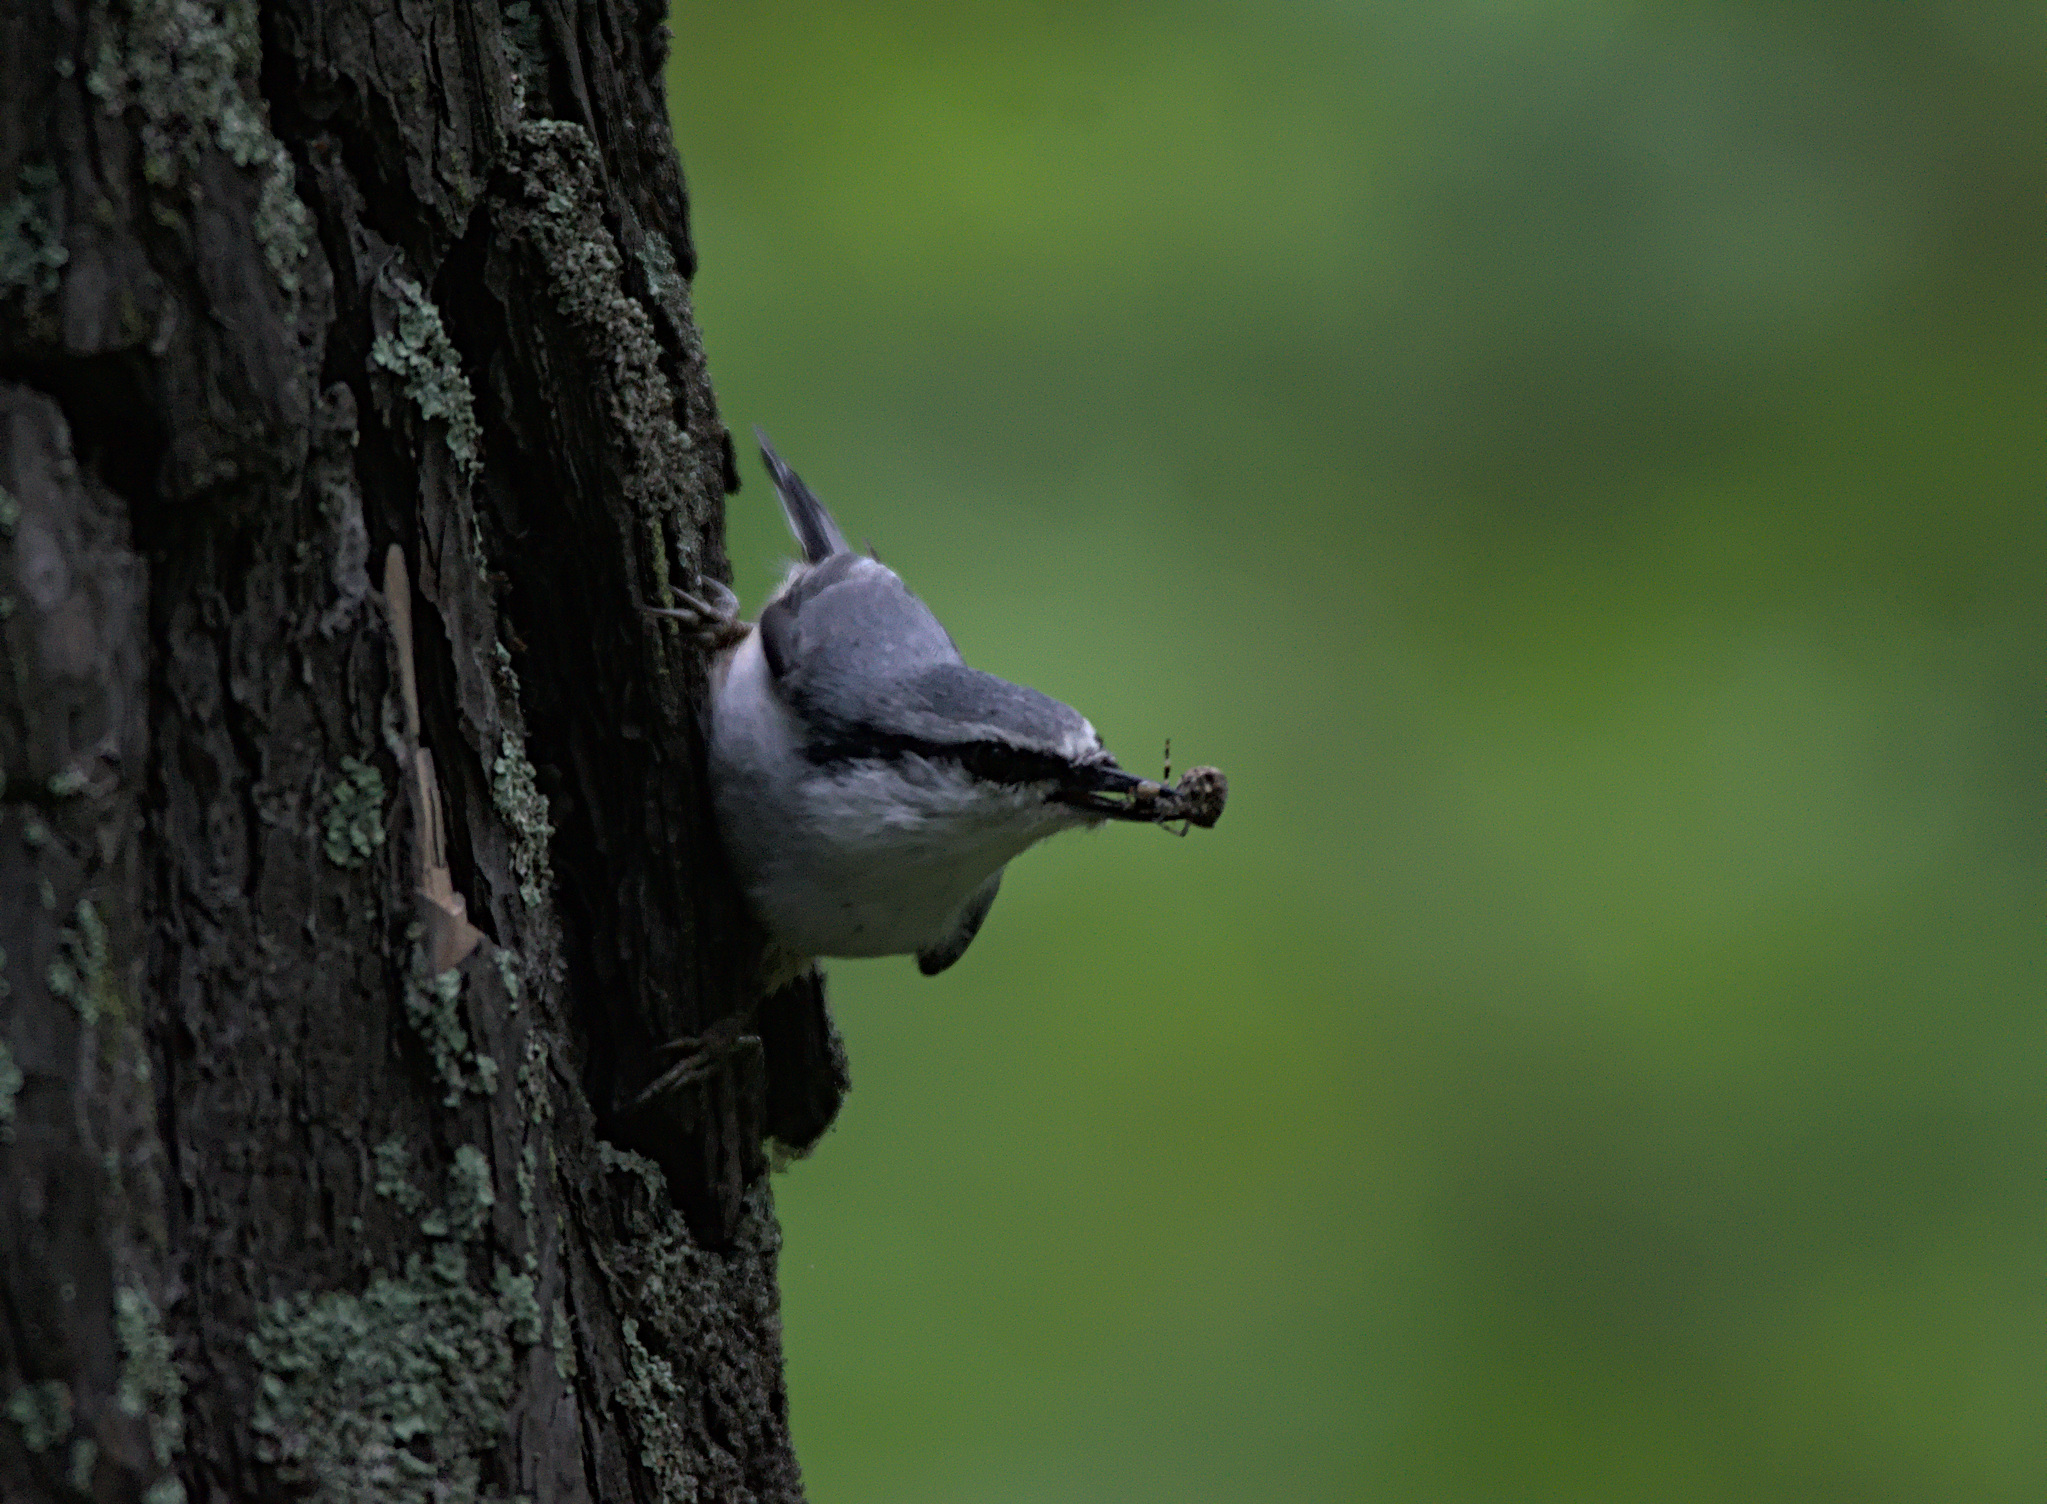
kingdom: Animalia
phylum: Chordata
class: Aves
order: Passeriformes
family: Sittidae
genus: Sitta
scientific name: Sitta europaea
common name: Eurasian nuthatch
